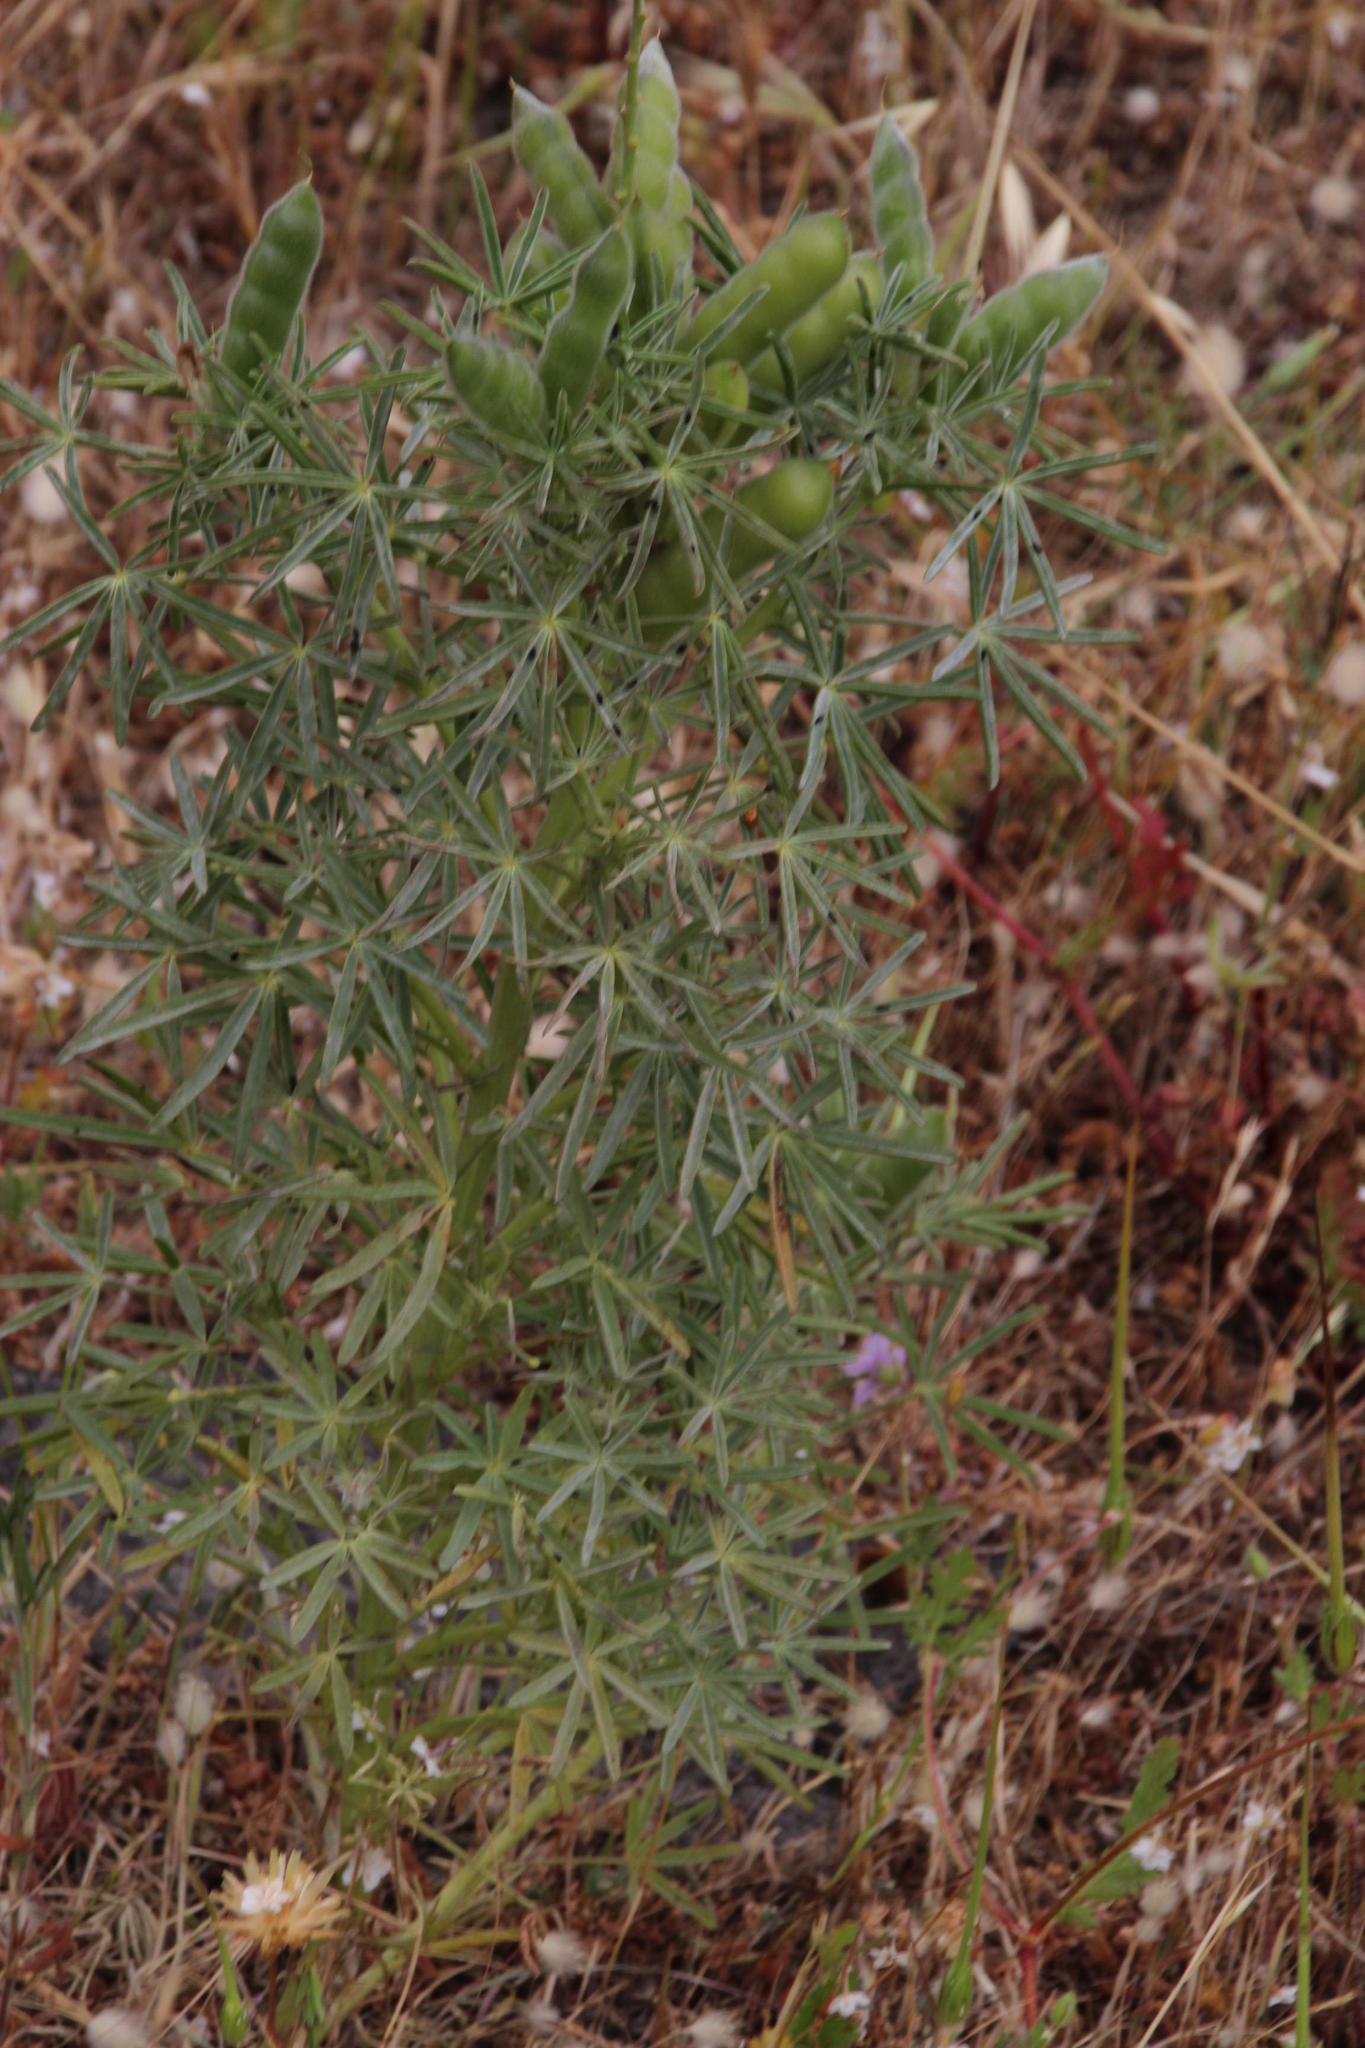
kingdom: Plantae
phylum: Tracheophyta
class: Magnoliopsida
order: Fabales
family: Fabaceae
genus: Lupinus
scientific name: Lupinus angustifolius
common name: Narrow-leaved lupin
